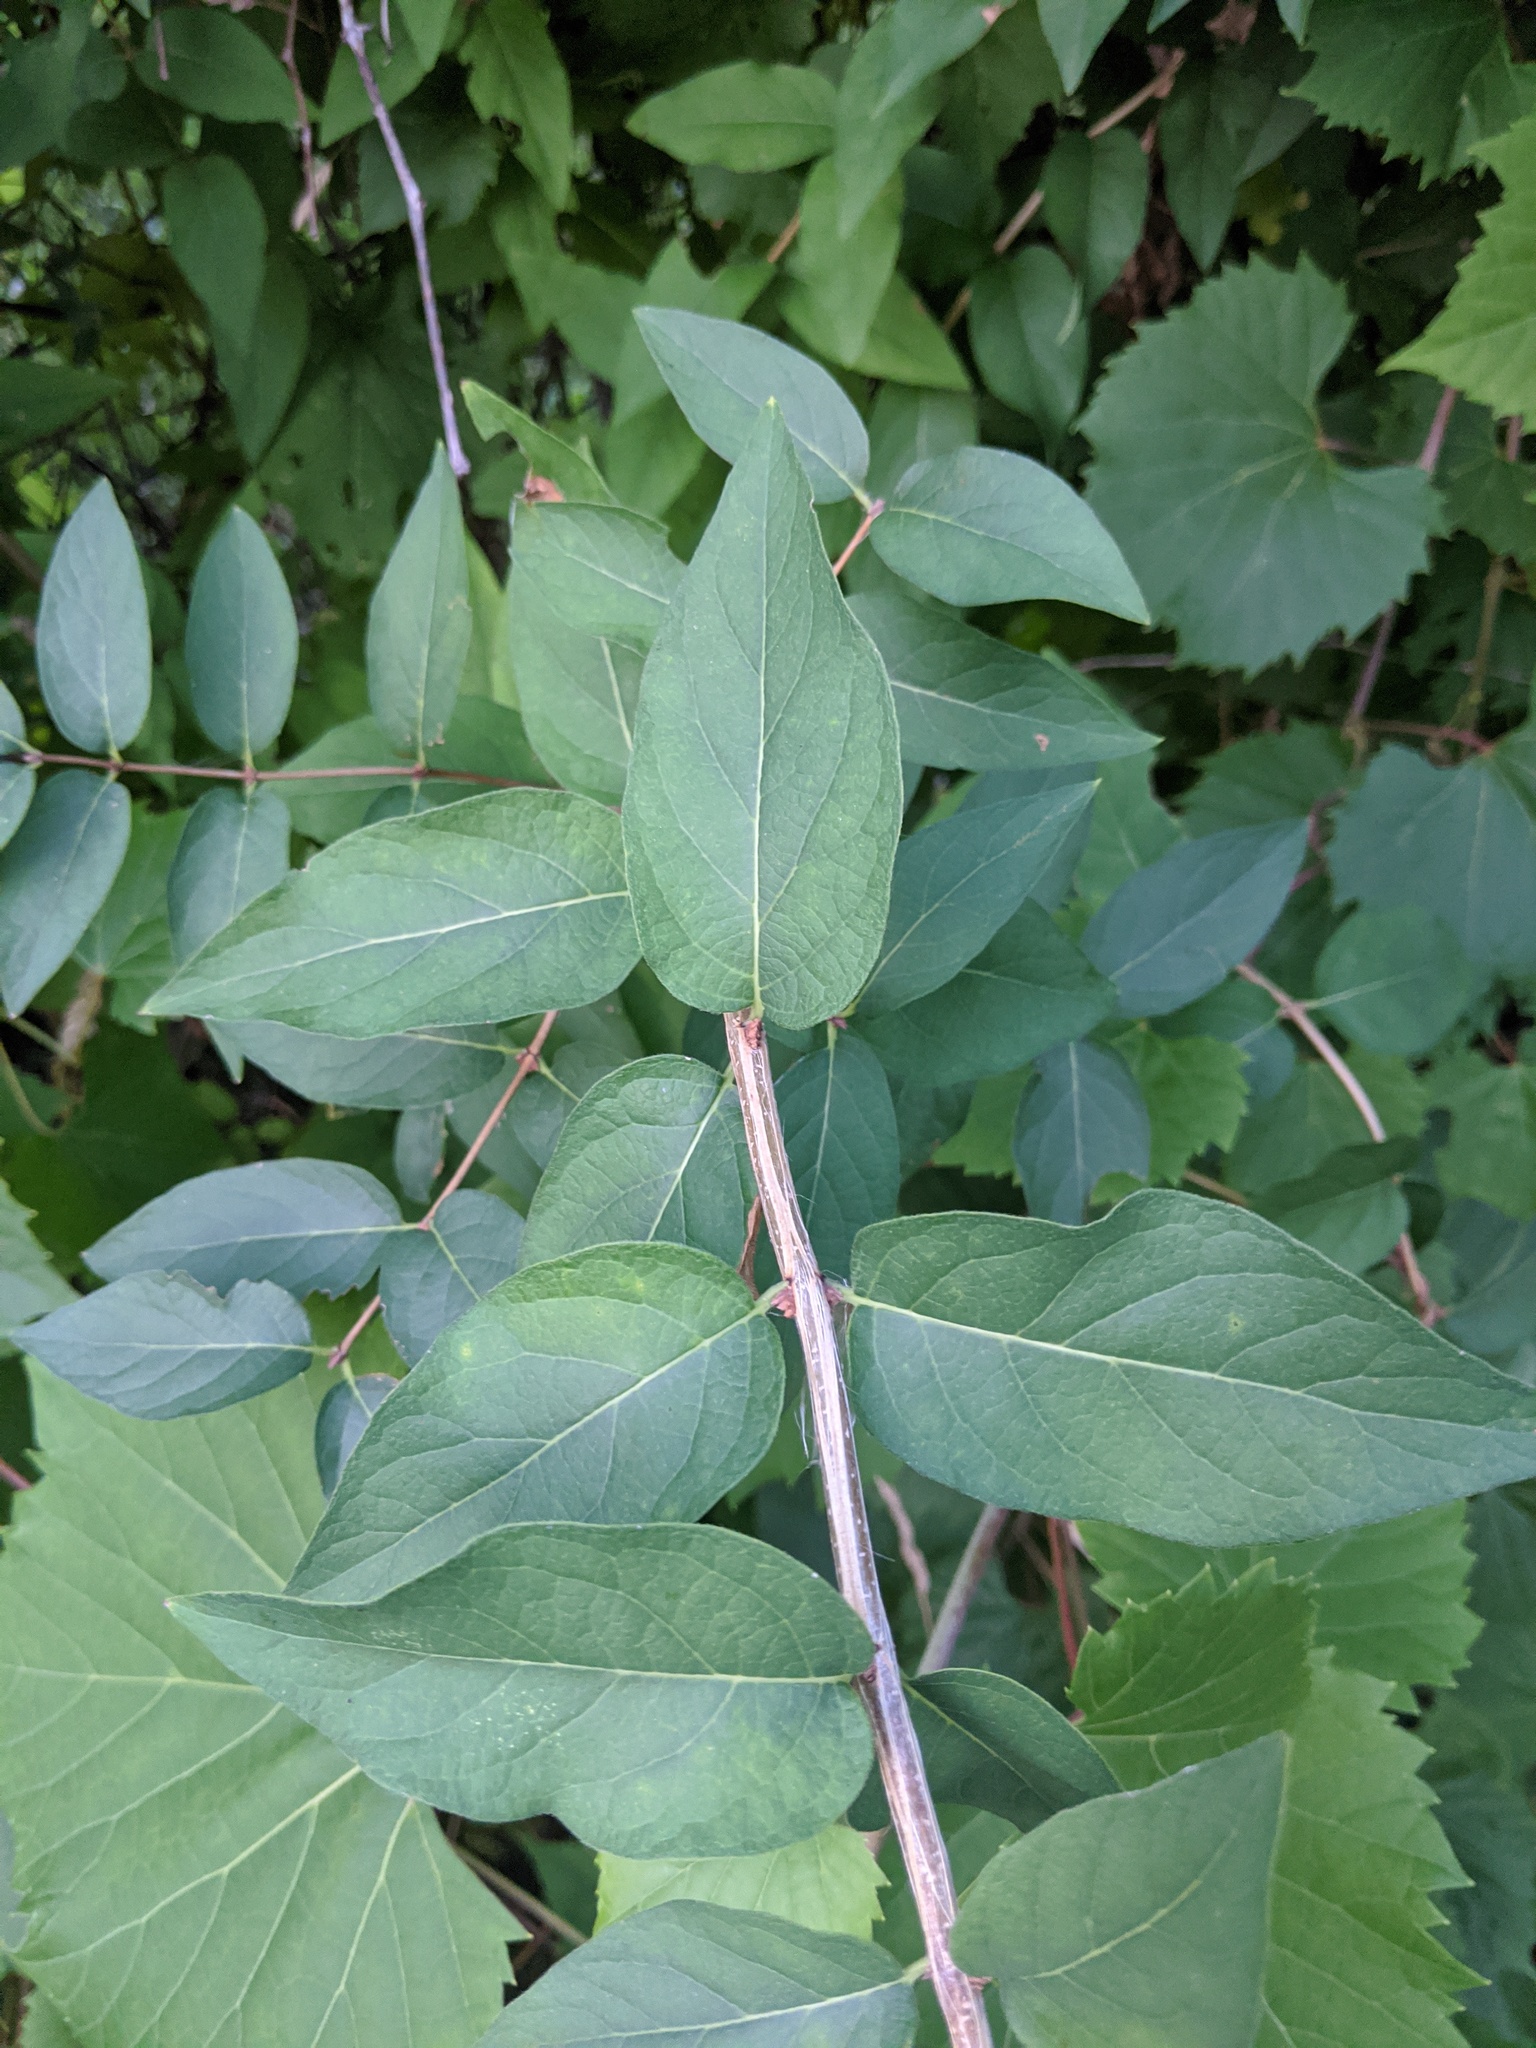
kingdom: Animalia
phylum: Arthropoda
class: Insecta
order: Hemiptera
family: Aphididae
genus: Hyadaphis
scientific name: Hyadaphis tataricae
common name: Honeysuckle witches' broom aphid
